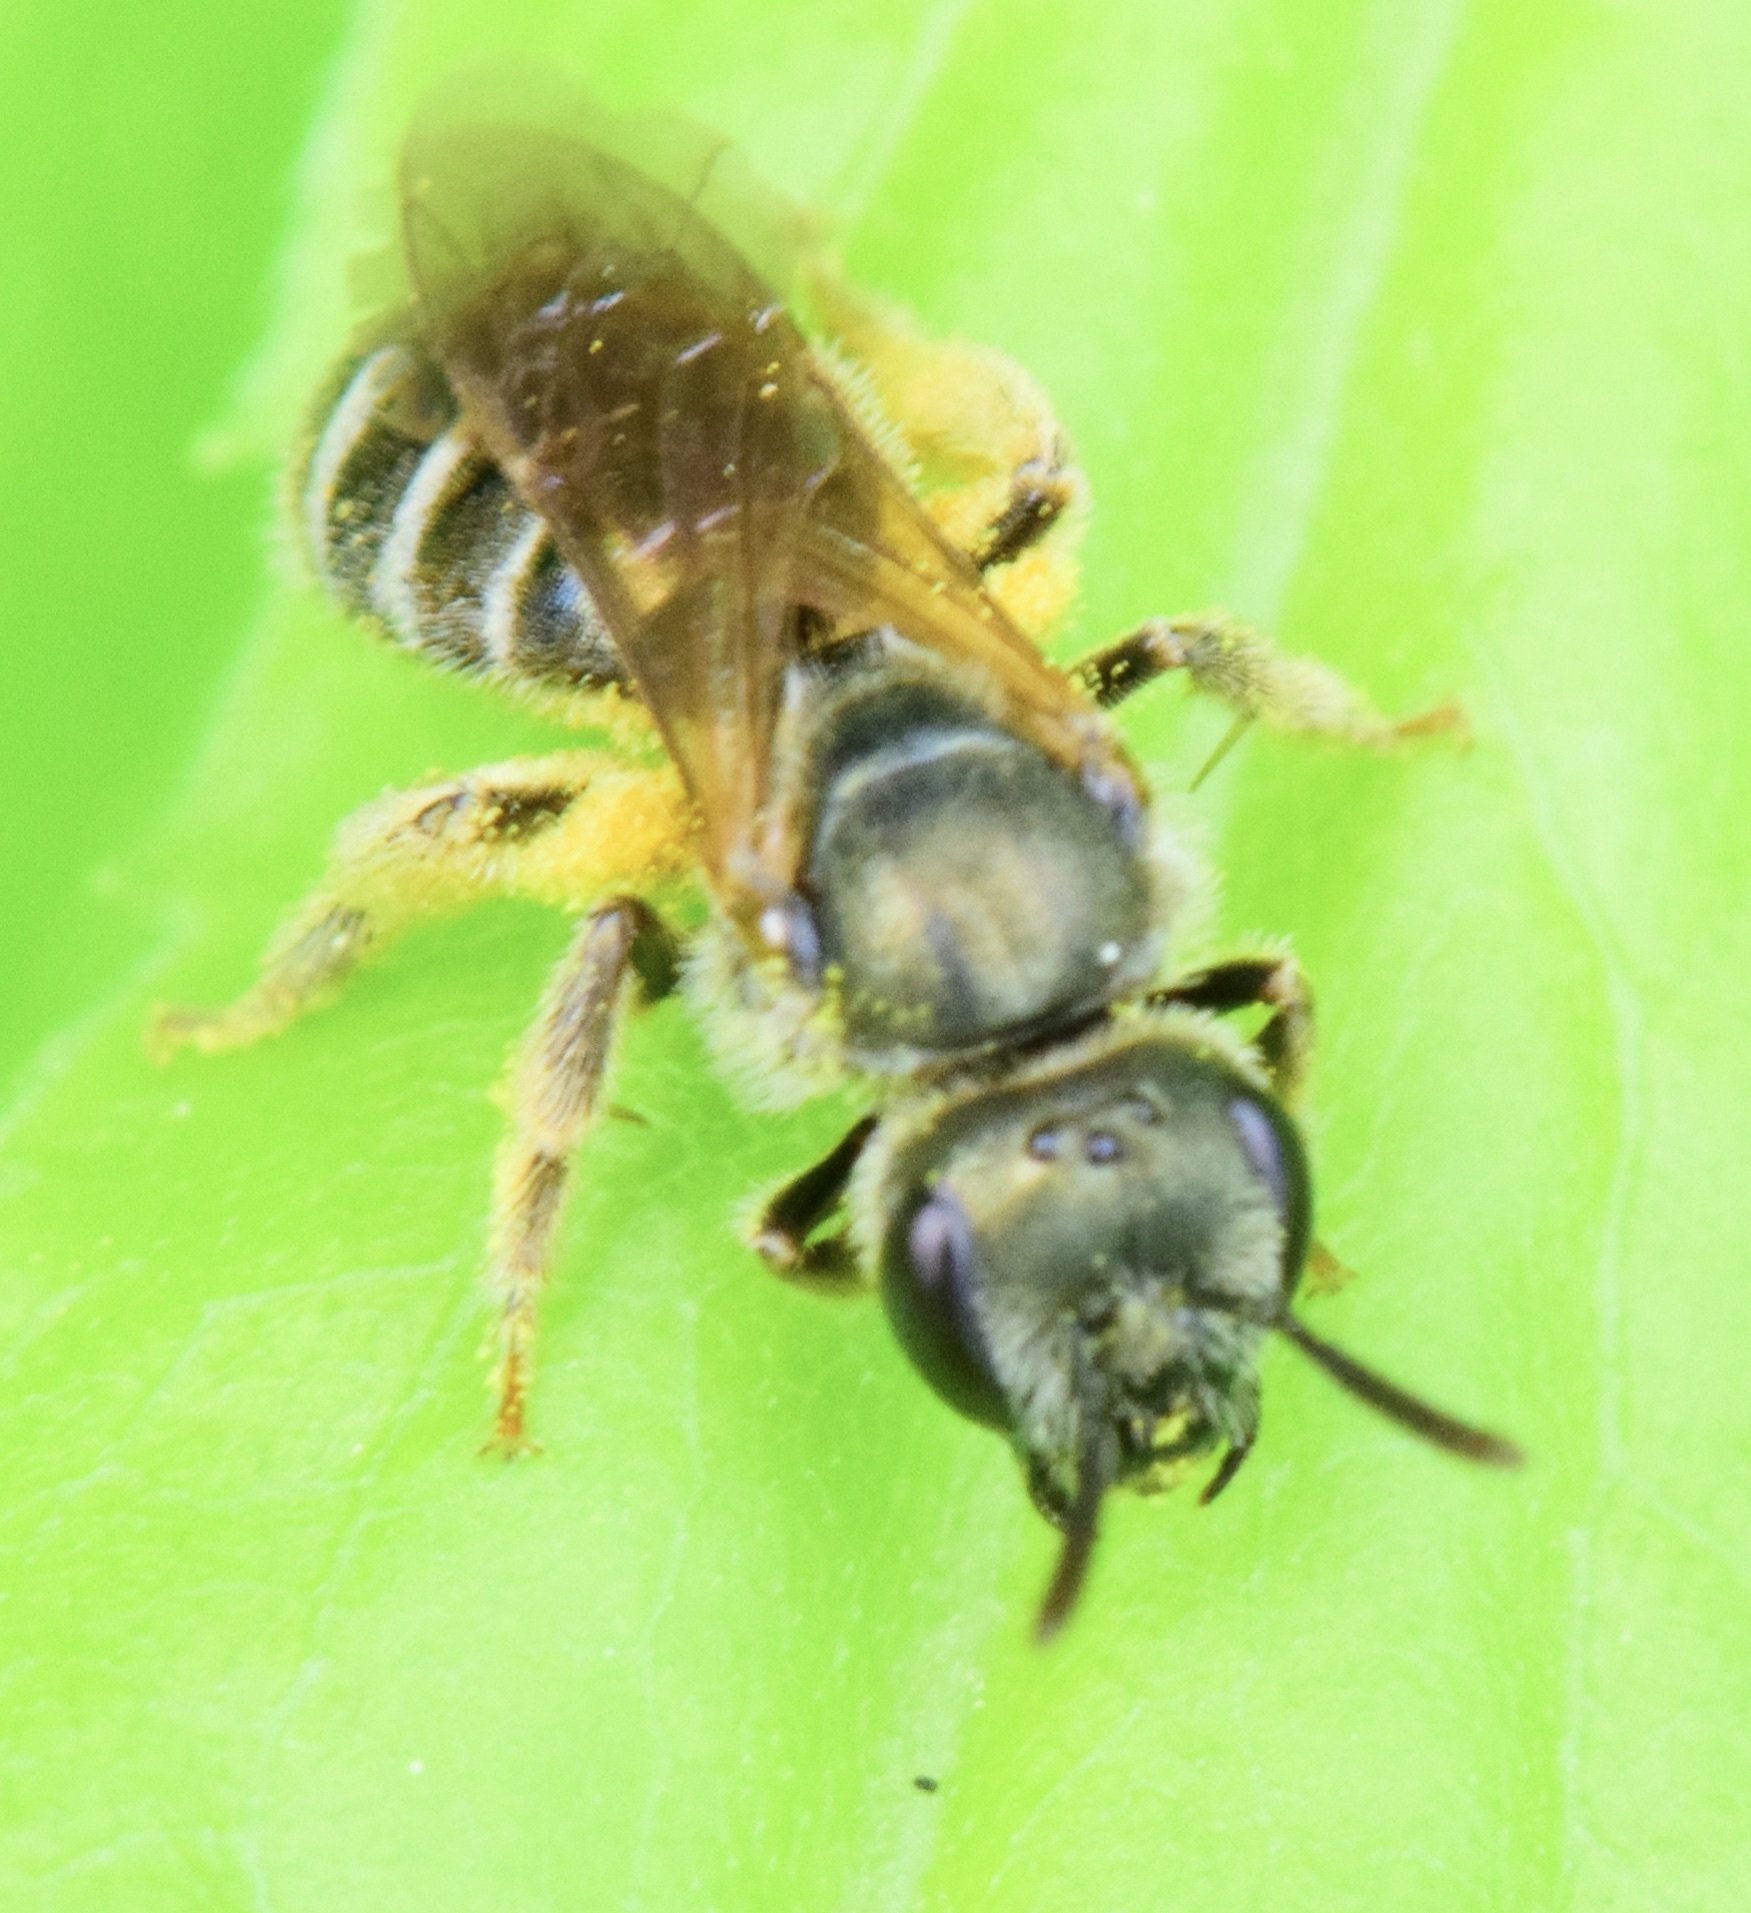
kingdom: Animalia
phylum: Arthropoda
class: Insecta
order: Hymenoptera
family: Halictidae
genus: Halictus
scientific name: Halictus confusus
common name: Southern bronze furrow bee
